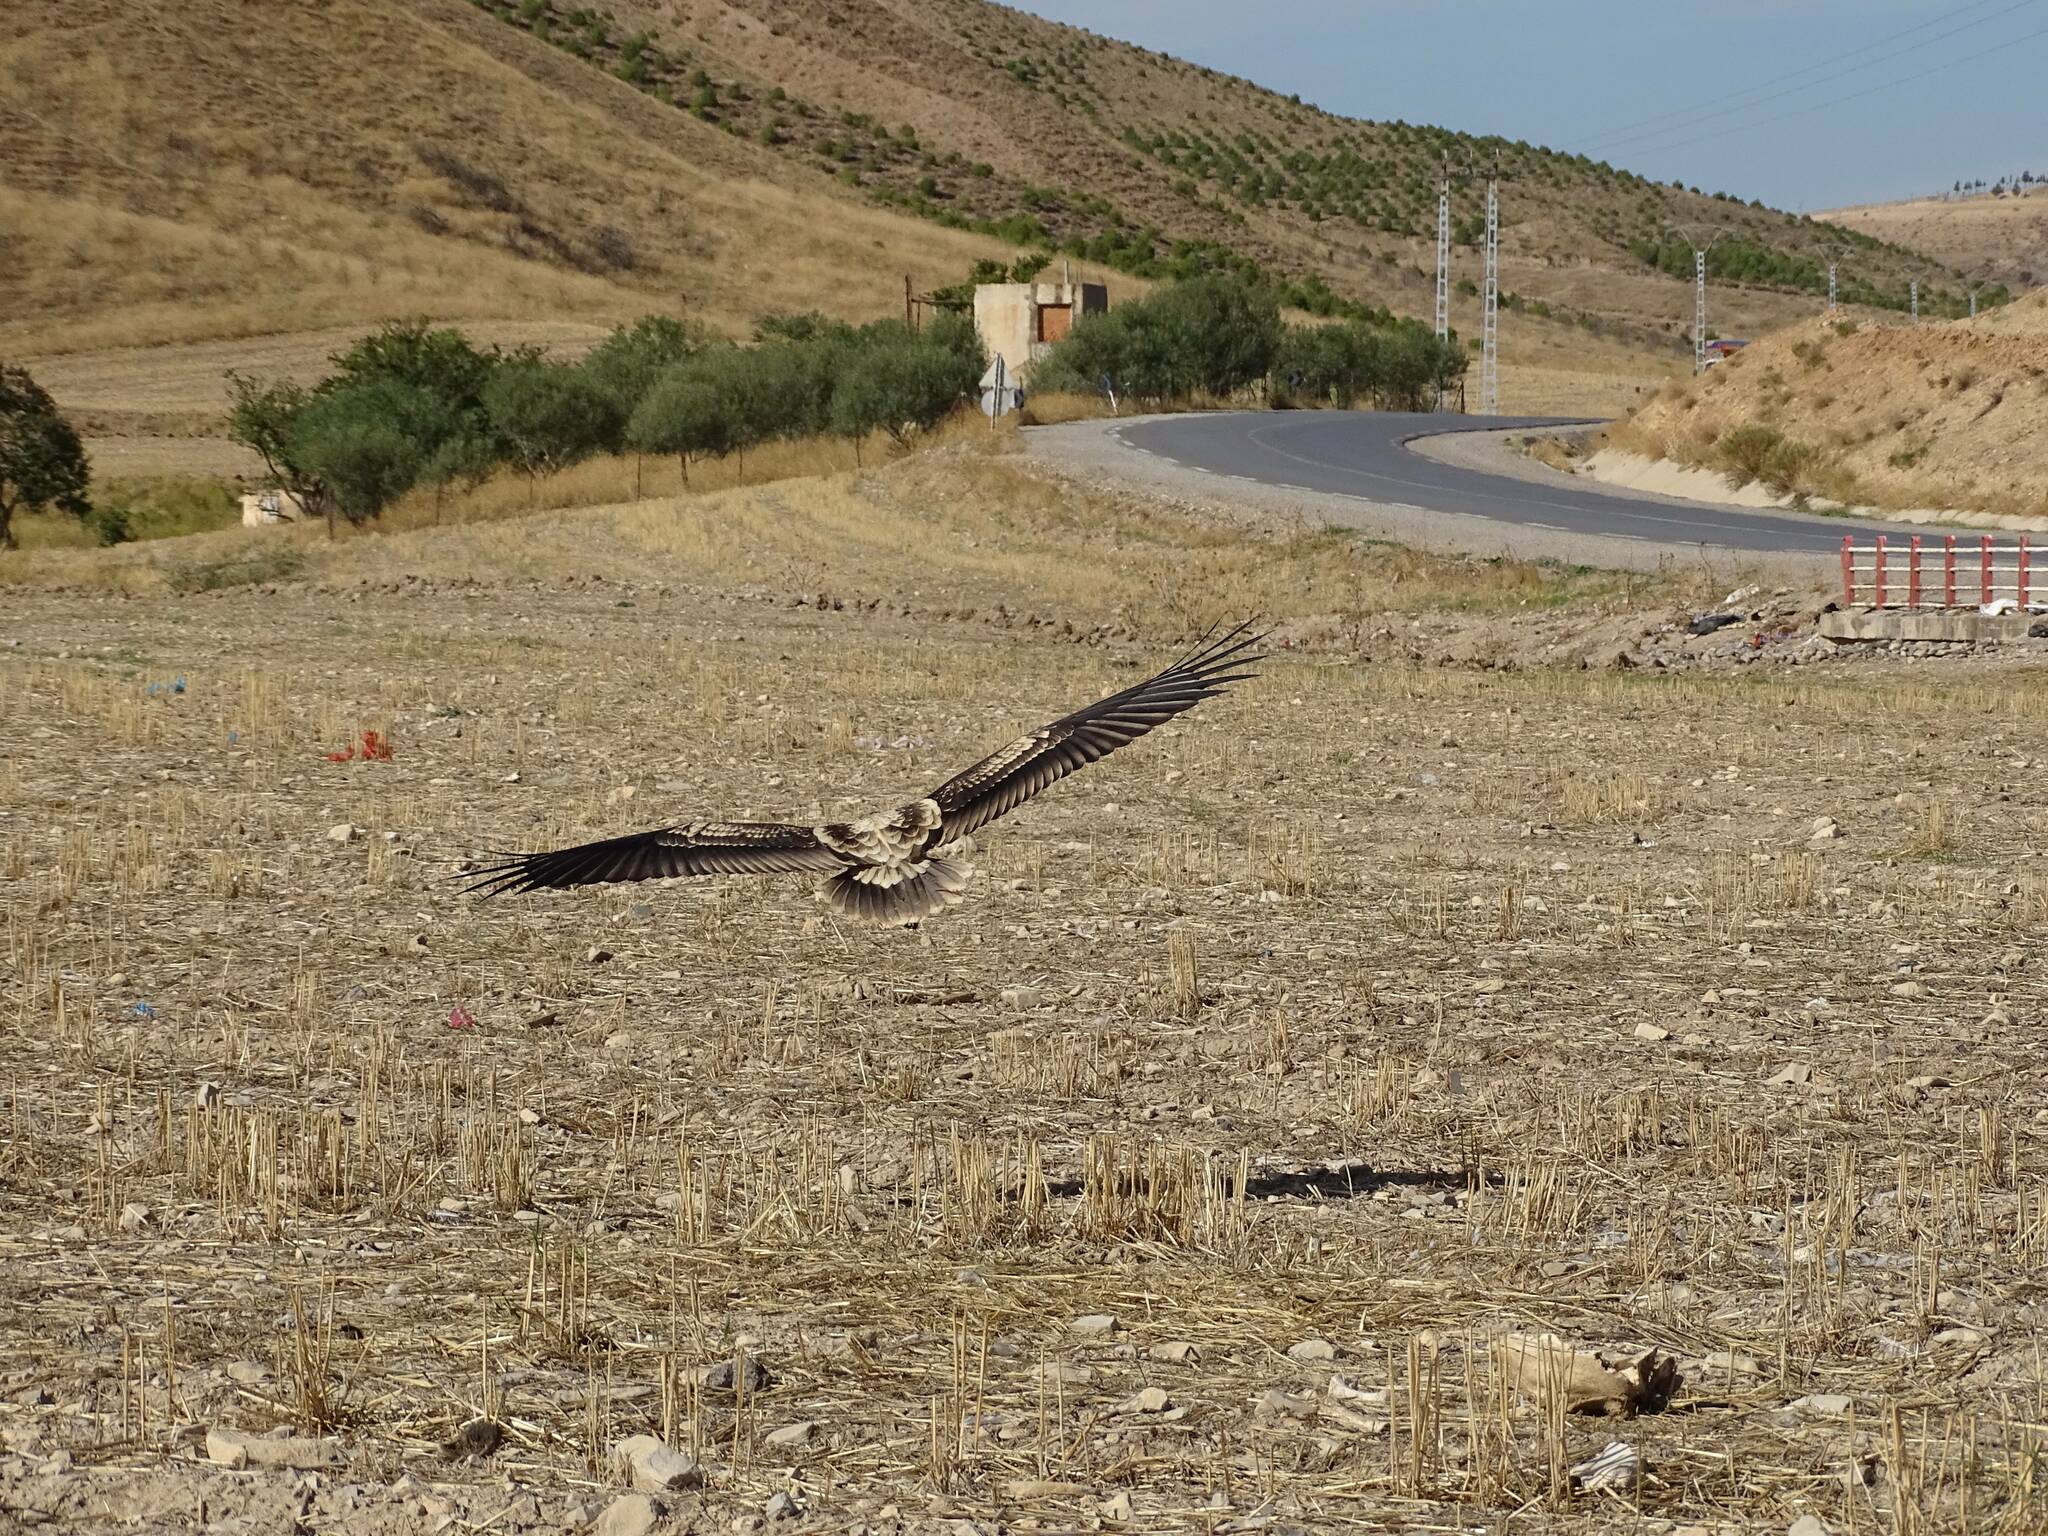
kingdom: Animalia
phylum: Chordata
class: Aves
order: Accipitriformes
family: Accipitridae
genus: Neophron
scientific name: Neophron percnopterus
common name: Egyptian vulture
